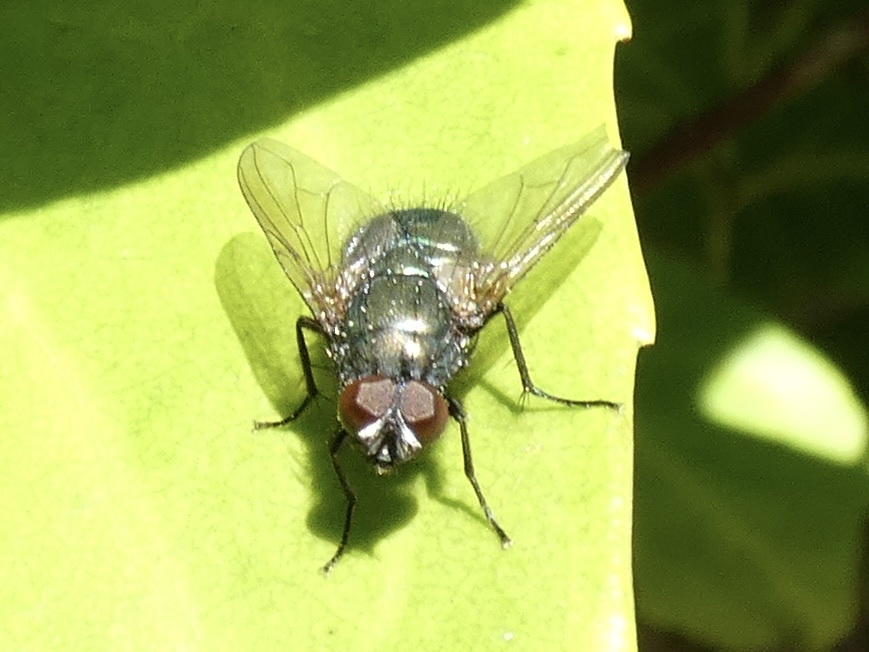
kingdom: Animalia
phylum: Arthropoda
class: Insecta
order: Diptera
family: Muscidae
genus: Dasyphora
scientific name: Dasyphora cyanella
